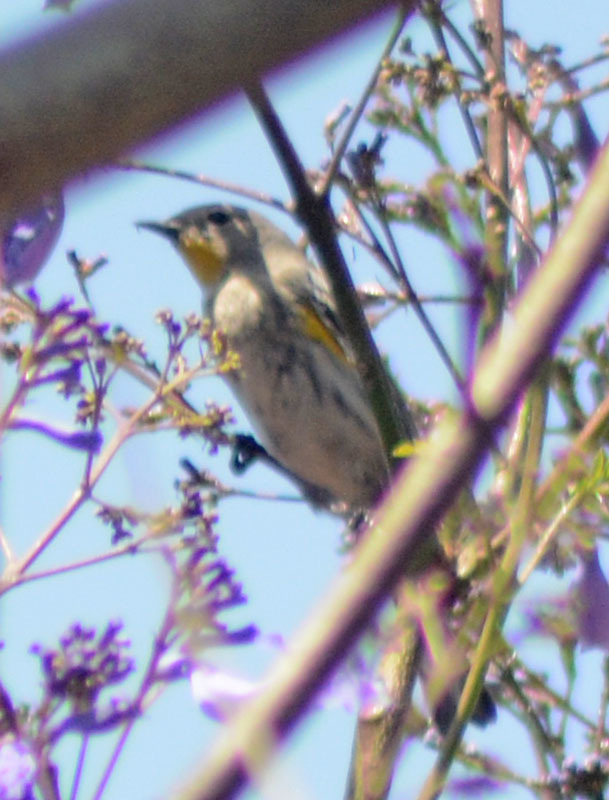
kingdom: Animalia
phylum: Chordata
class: Aves
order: Passeriformes
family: Parulidae
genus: Setophaga
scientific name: Setophaga auduboni
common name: Audubon's warbler
